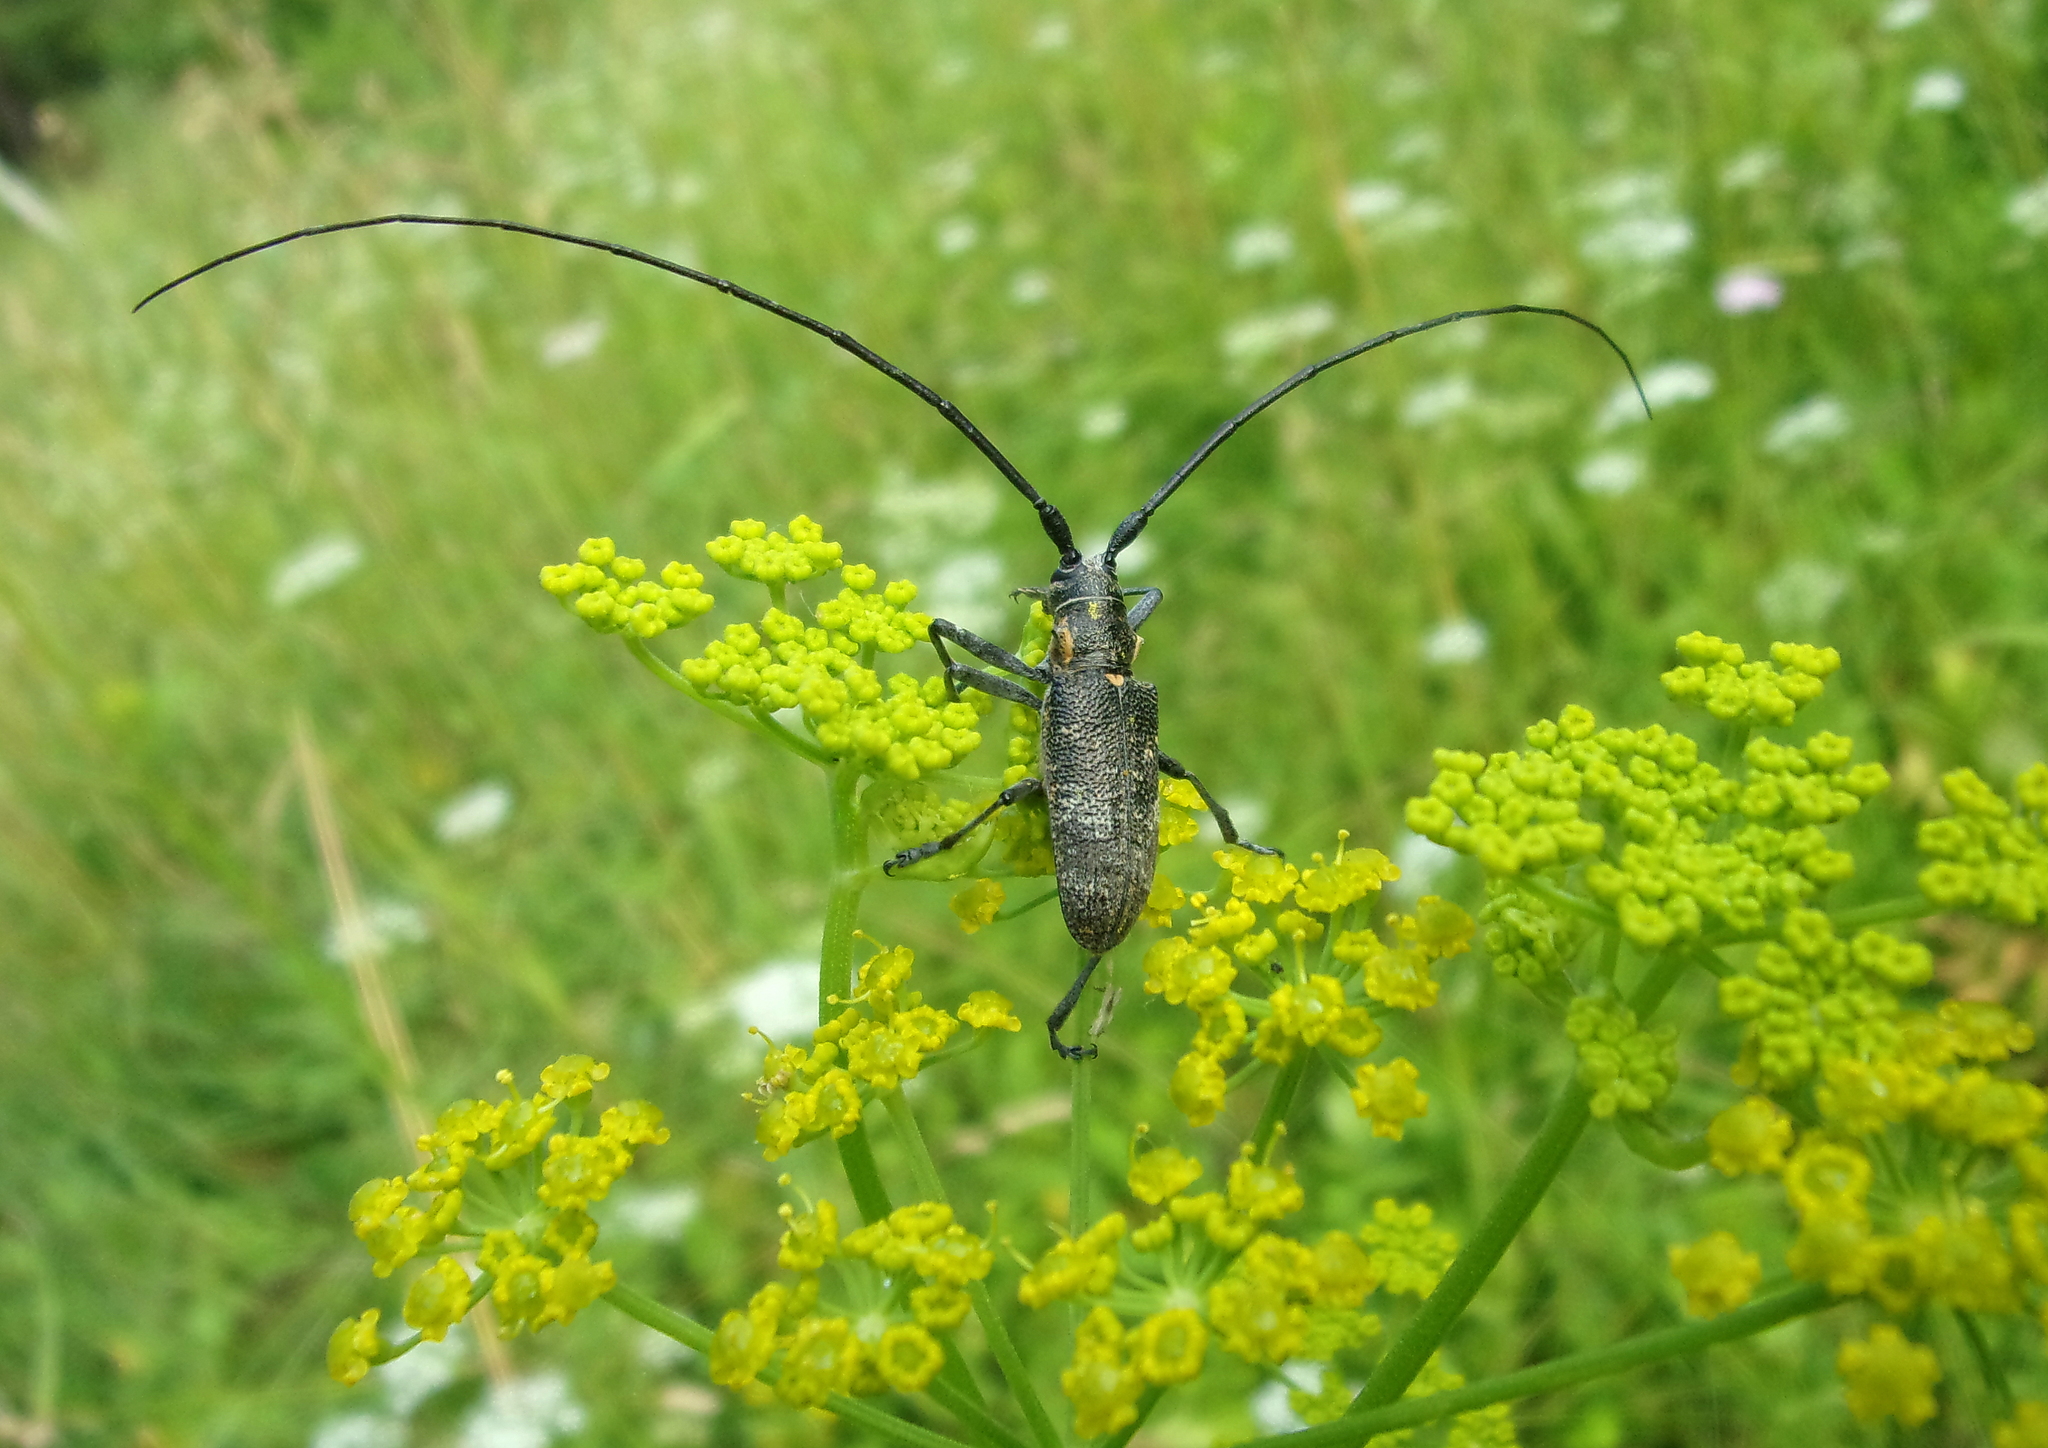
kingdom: Animalia
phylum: Arthropoda
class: Insecta
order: Coleoptera
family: Cerambycidae
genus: Monochamus
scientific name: Monochamus galloprovincialis
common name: Pine sawyer
